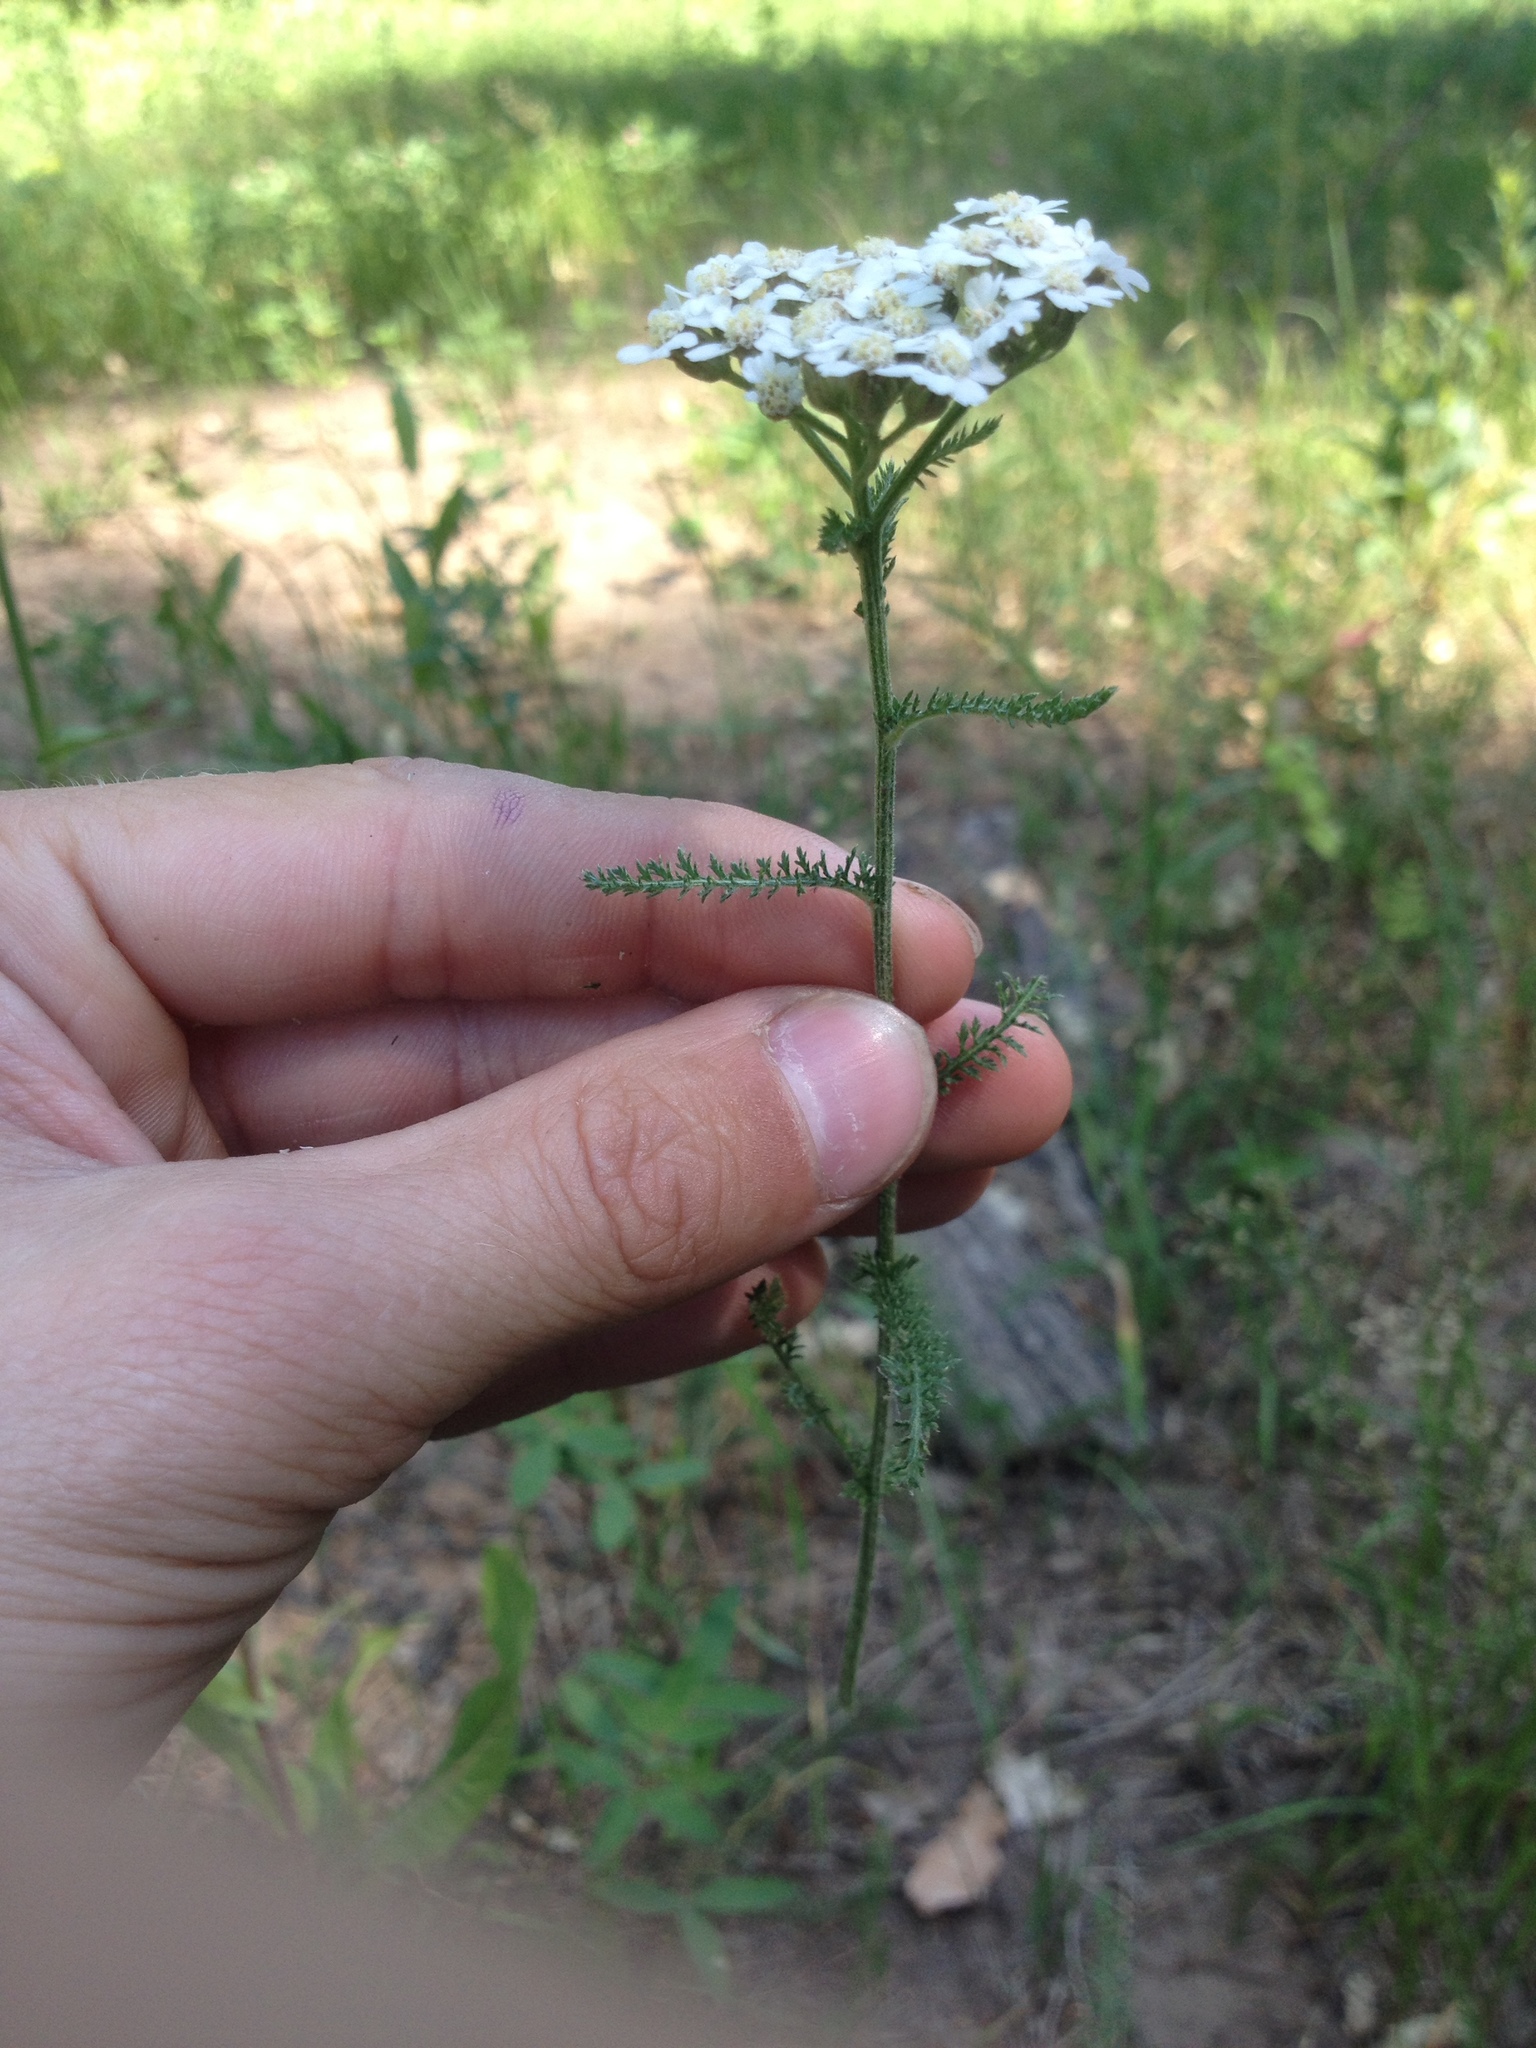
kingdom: Plantae
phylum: Tracheophyta
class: Magnoliopsida
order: Asterales
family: Asteraceae
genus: Achillea
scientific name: Achillea millefolium
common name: Yarrow
